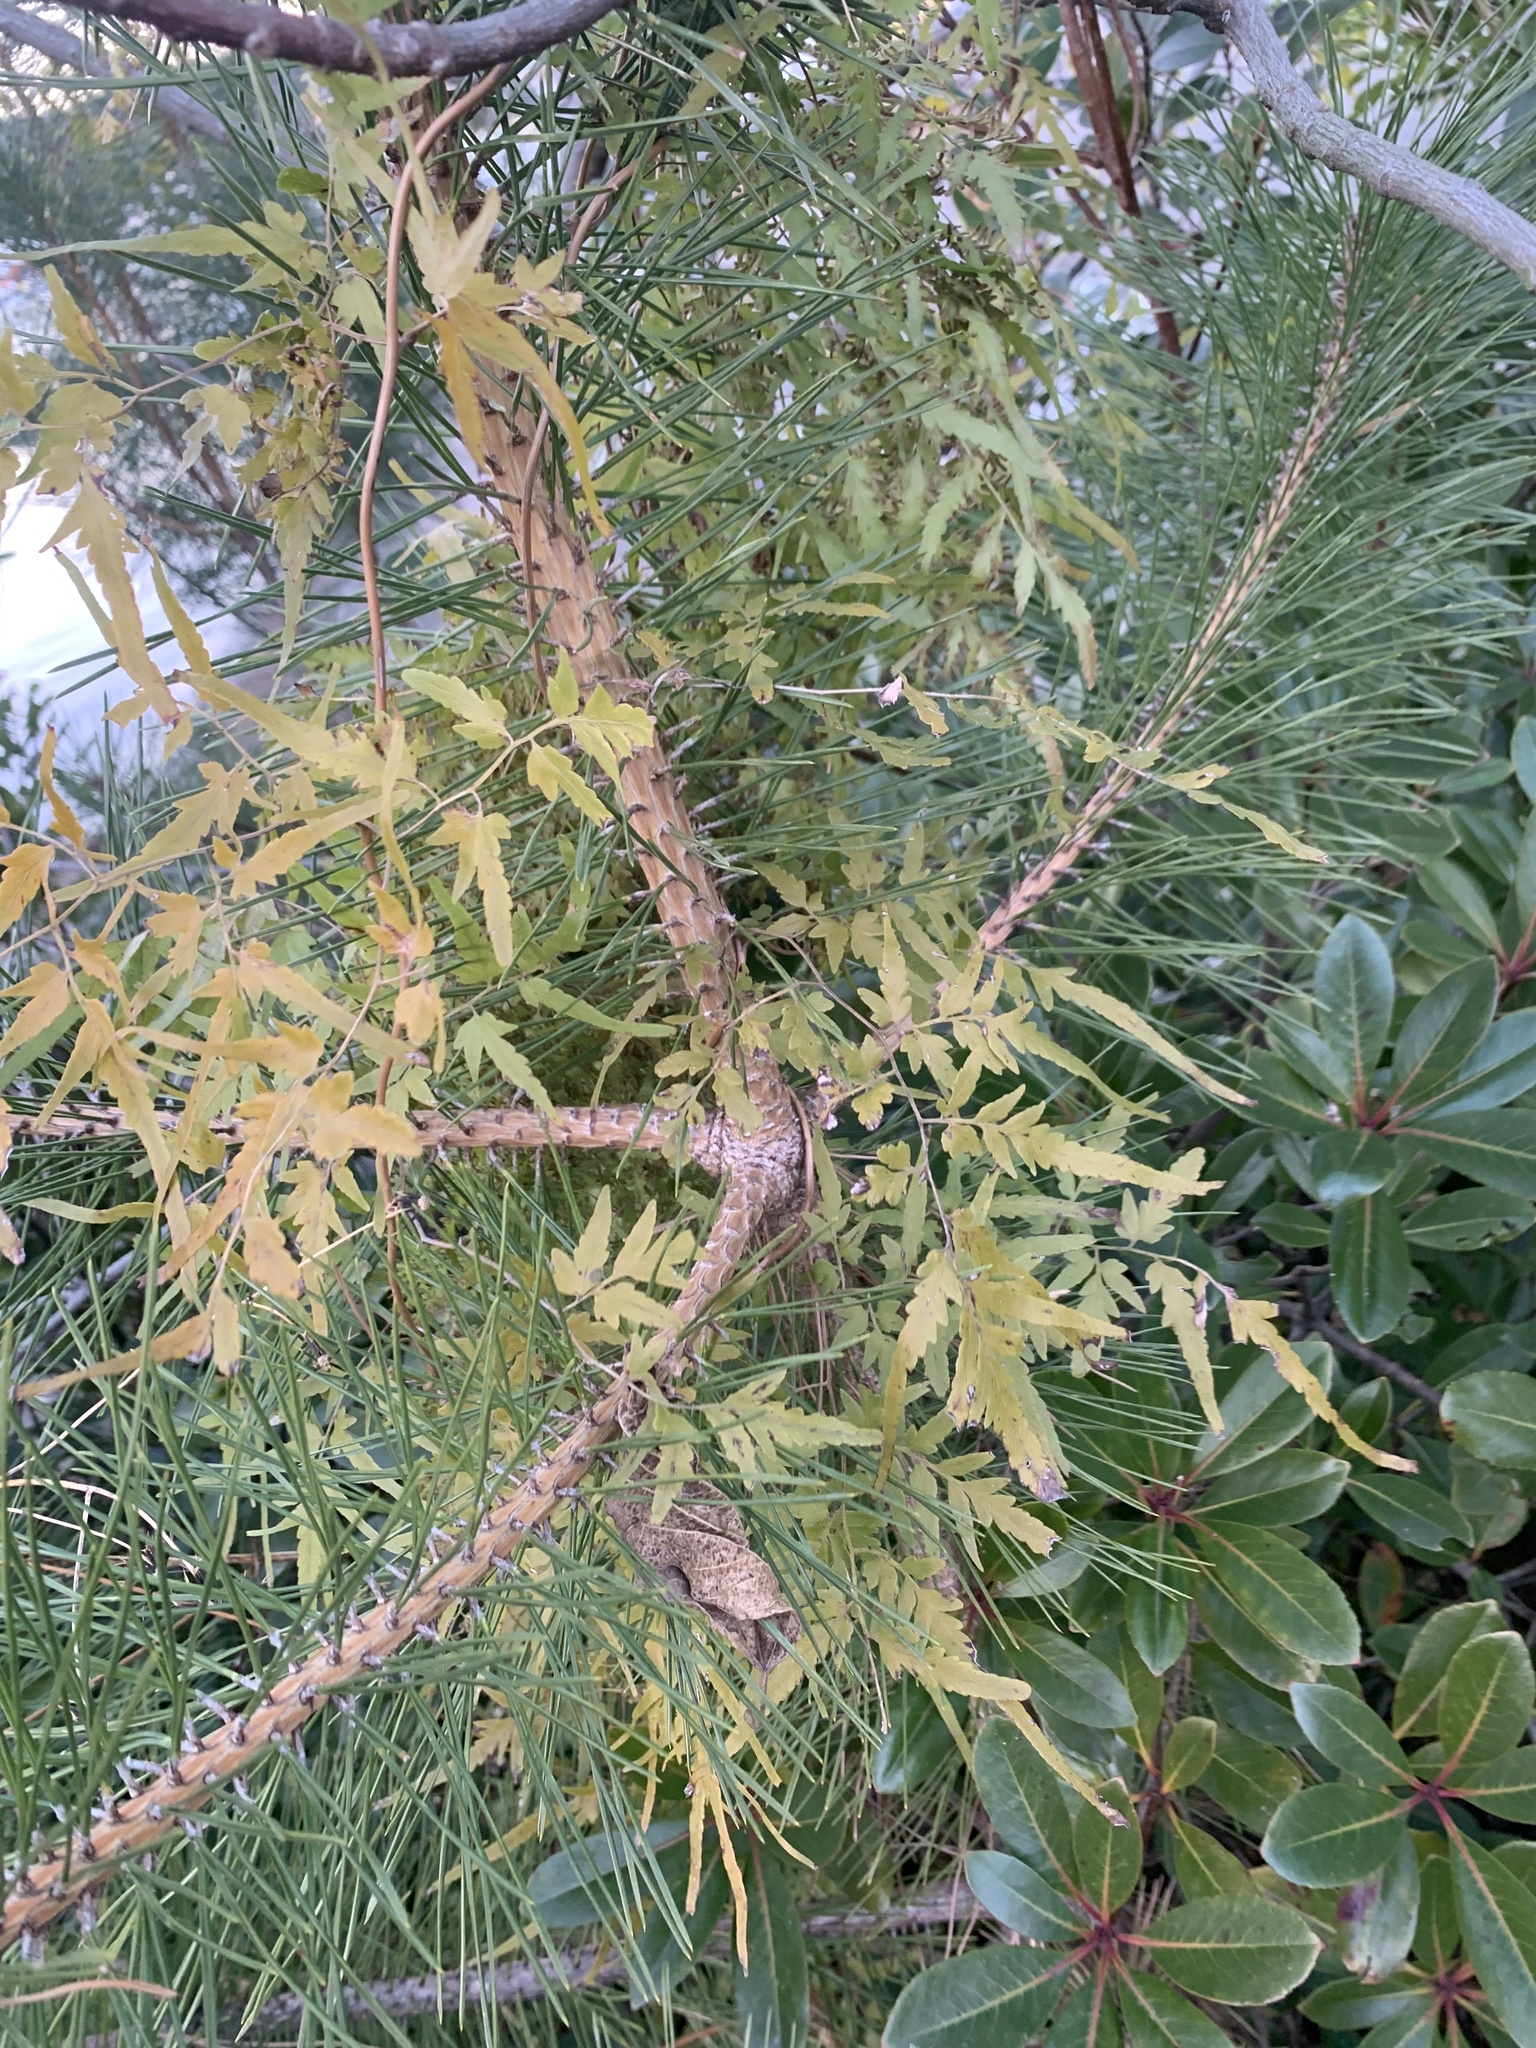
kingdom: Plantae
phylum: Tracheophyta
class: Polypodiopsida
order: Schizaeales
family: Lygodiaceae
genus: Lygodium
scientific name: Lygodium japonicum
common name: Japanese climbing fern
